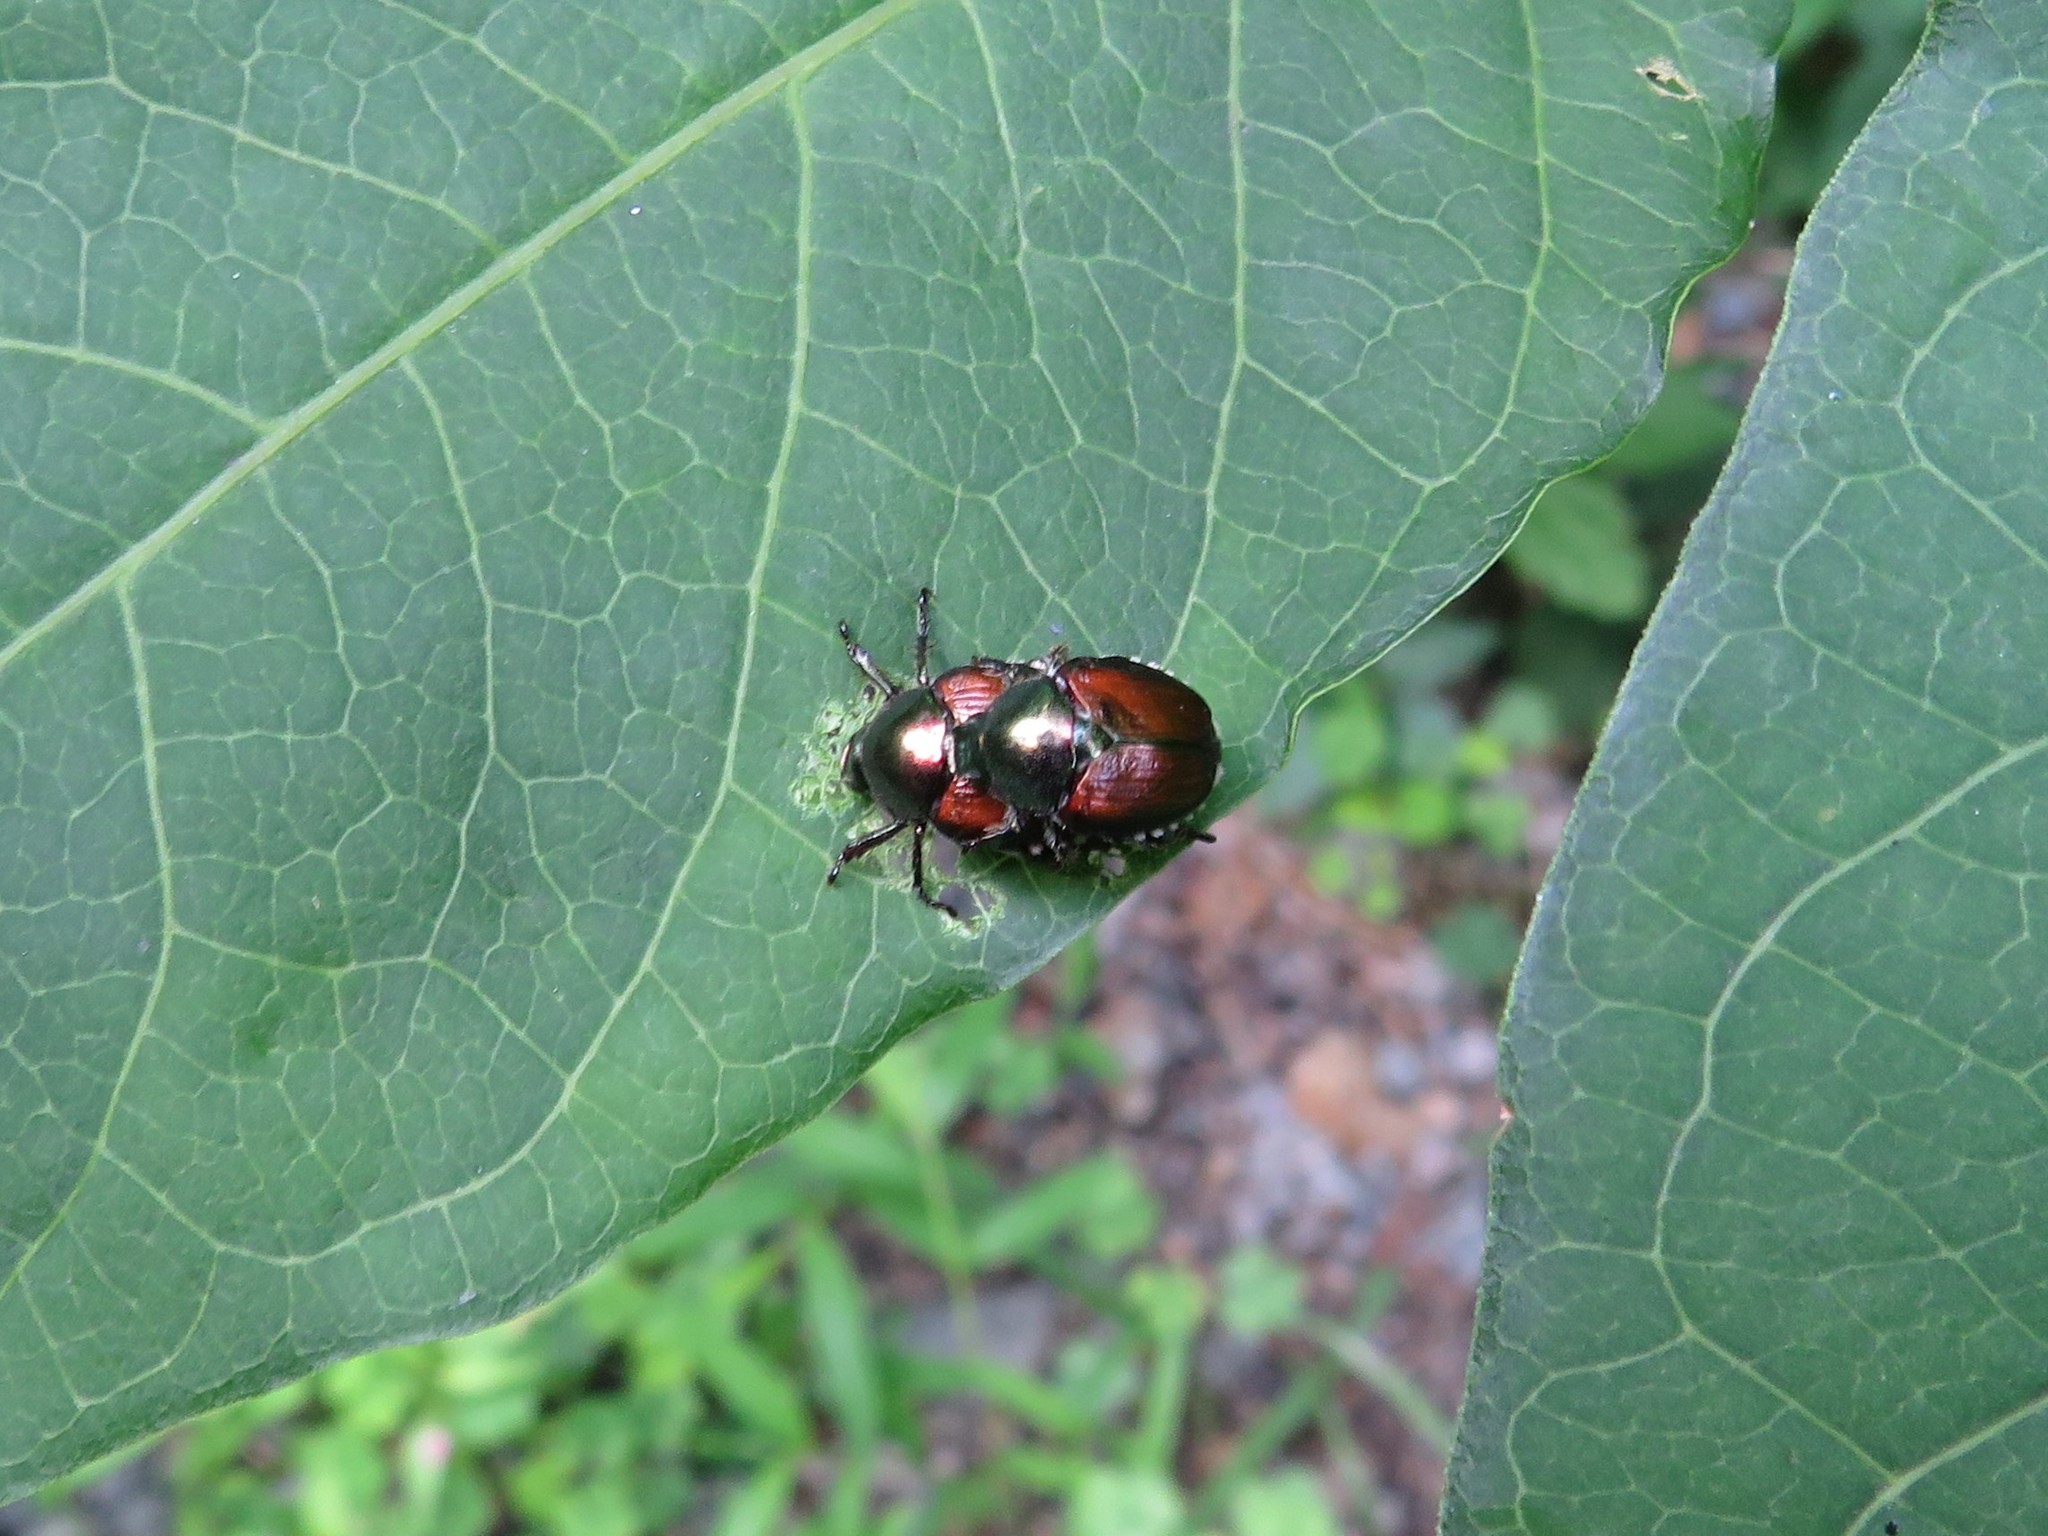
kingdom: Animalia
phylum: Arthropoda
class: Insecta
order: Coleoptera
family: Scarabaeidae
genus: Popillia
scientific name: Popillia japonica
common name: Japanese beetle
